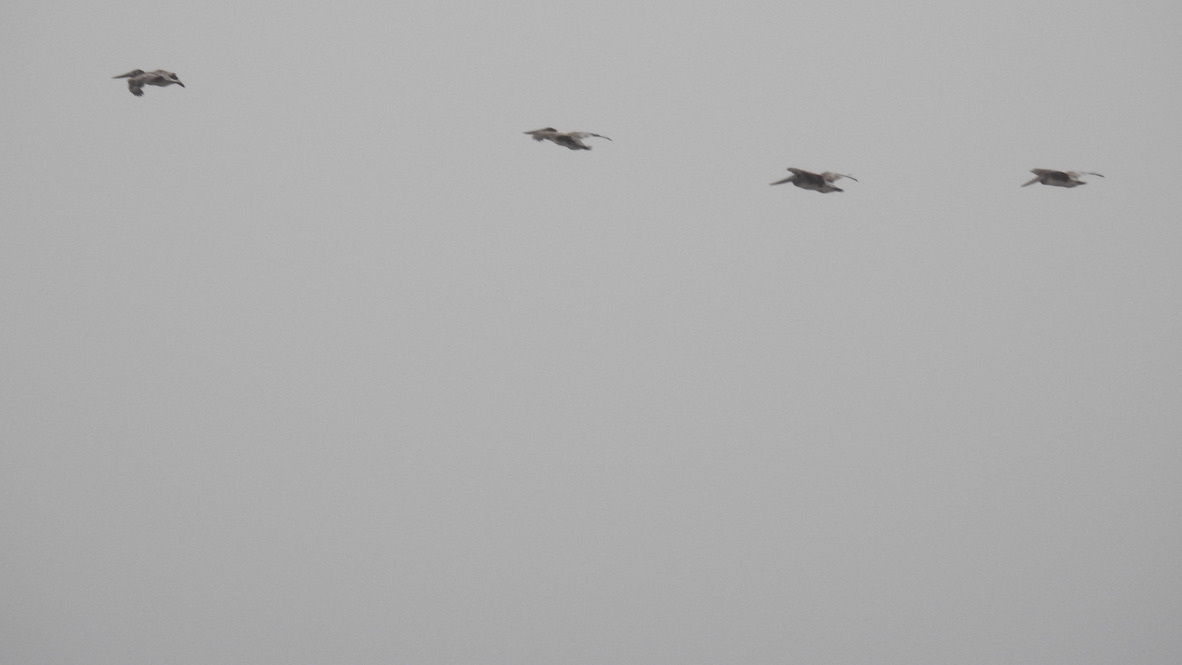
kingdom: Animalia
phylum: Chordata
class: Aves
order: Pelecaniformes
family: Pelecanidae
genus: Pelecanus
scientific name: Pelecanus occidentalis
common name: Brown pelican
